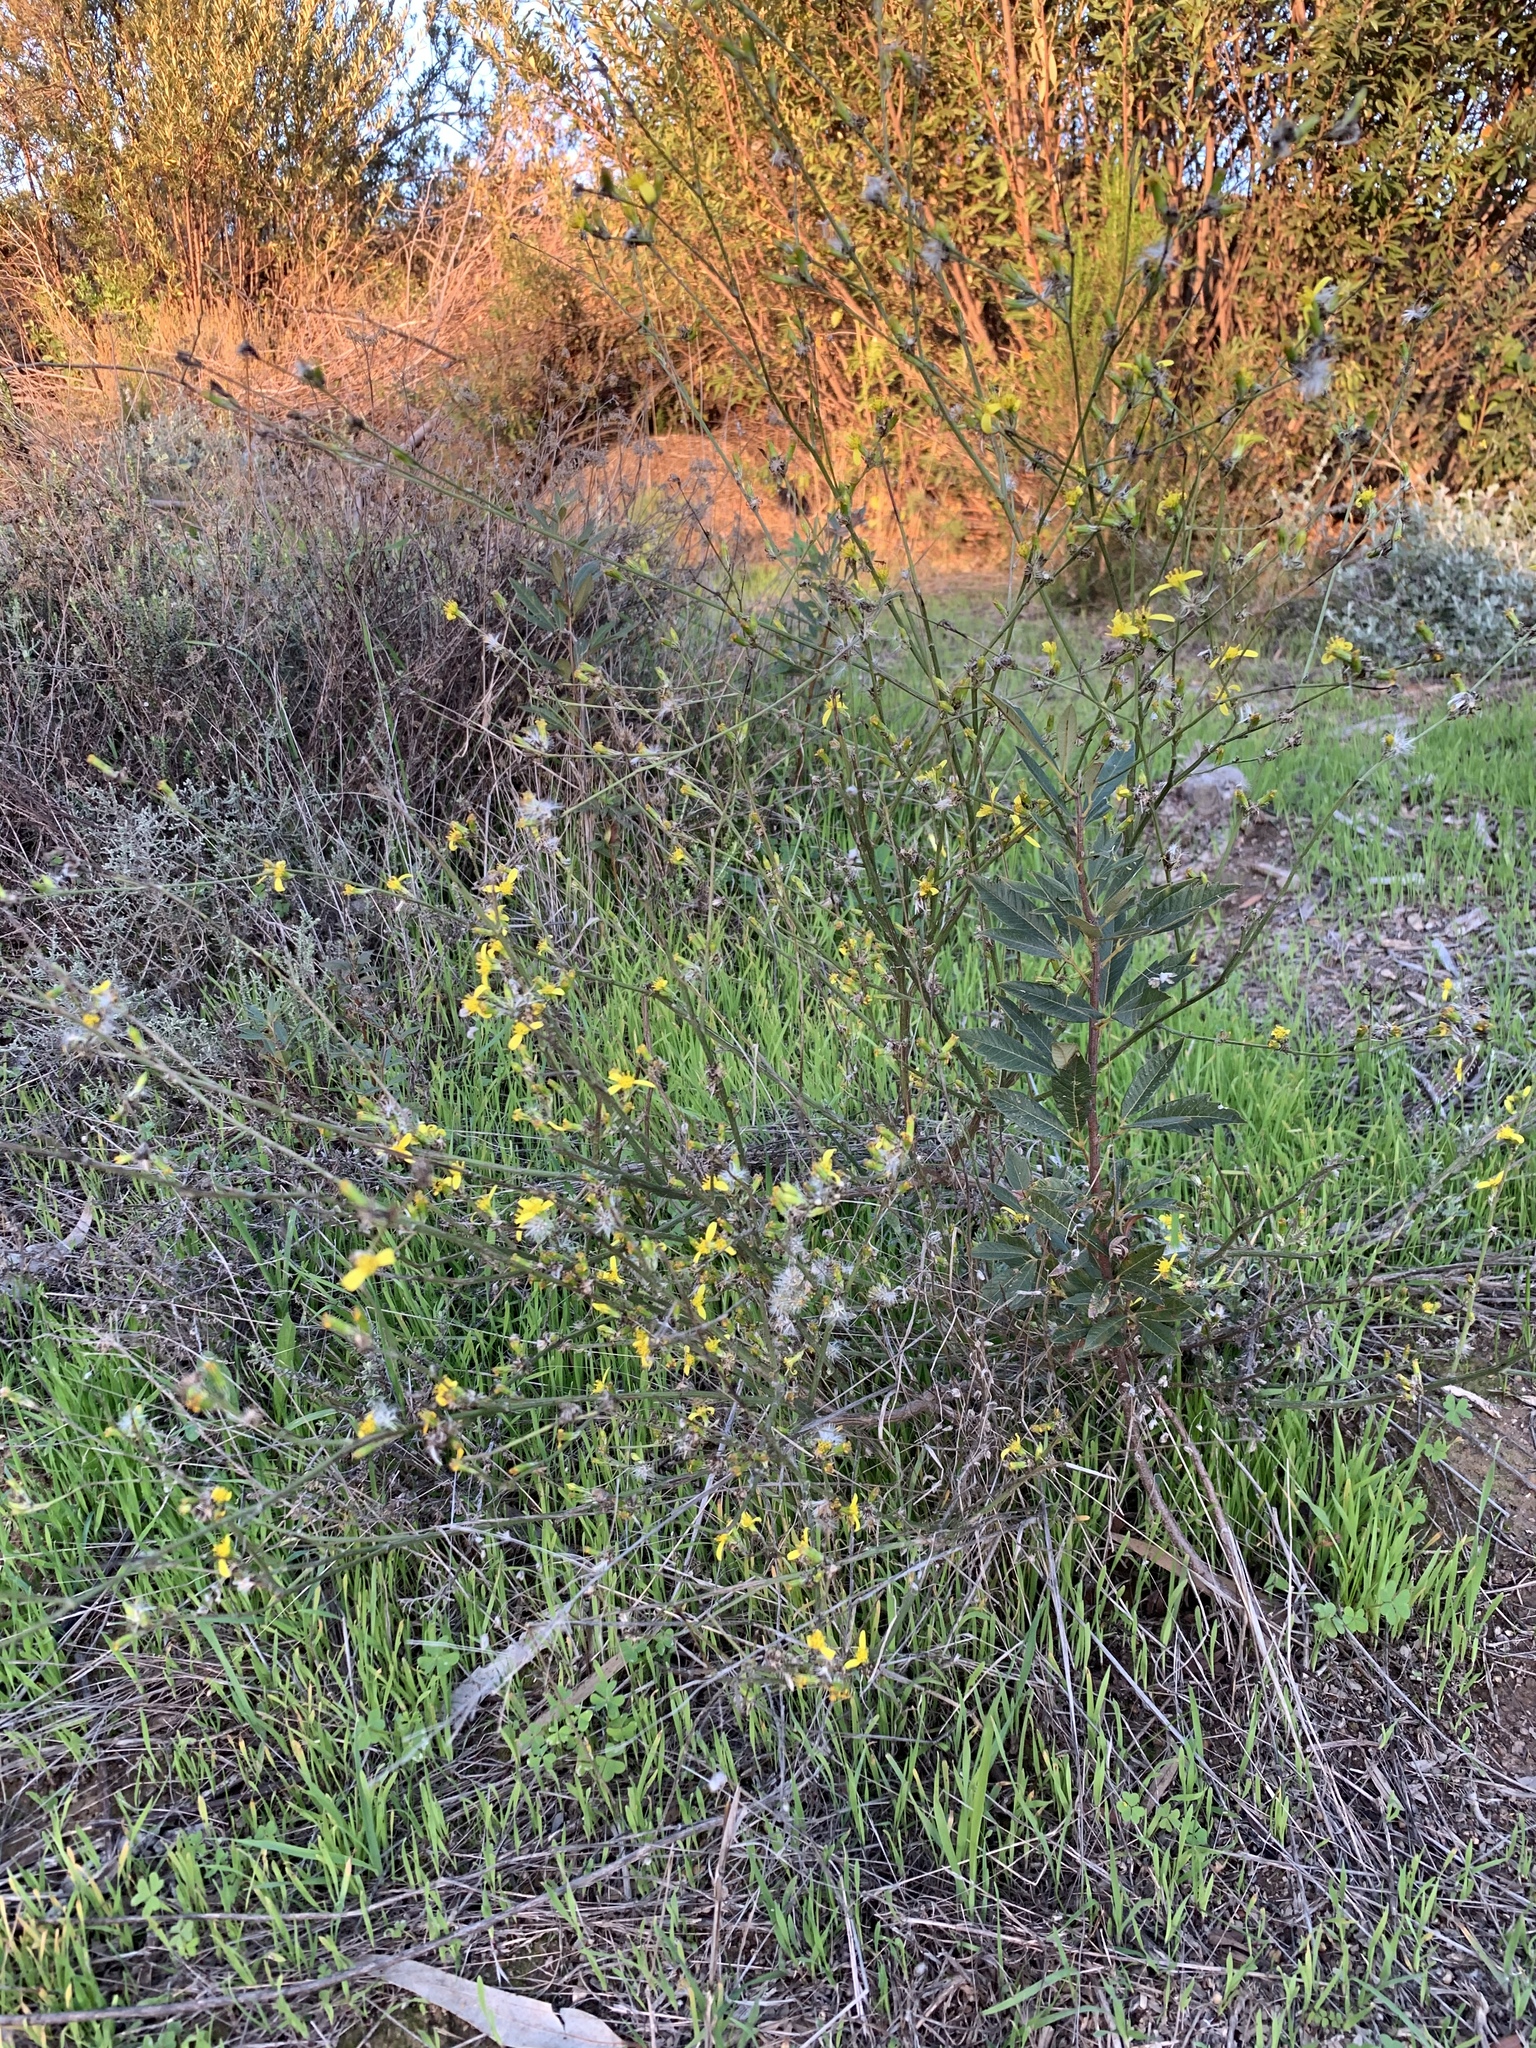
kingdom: Plantae
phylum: Tracheophyta
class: Magnoliopsida
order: Asterales
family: Asteraceae
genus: Senecio
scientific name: Senecio pubigerus
